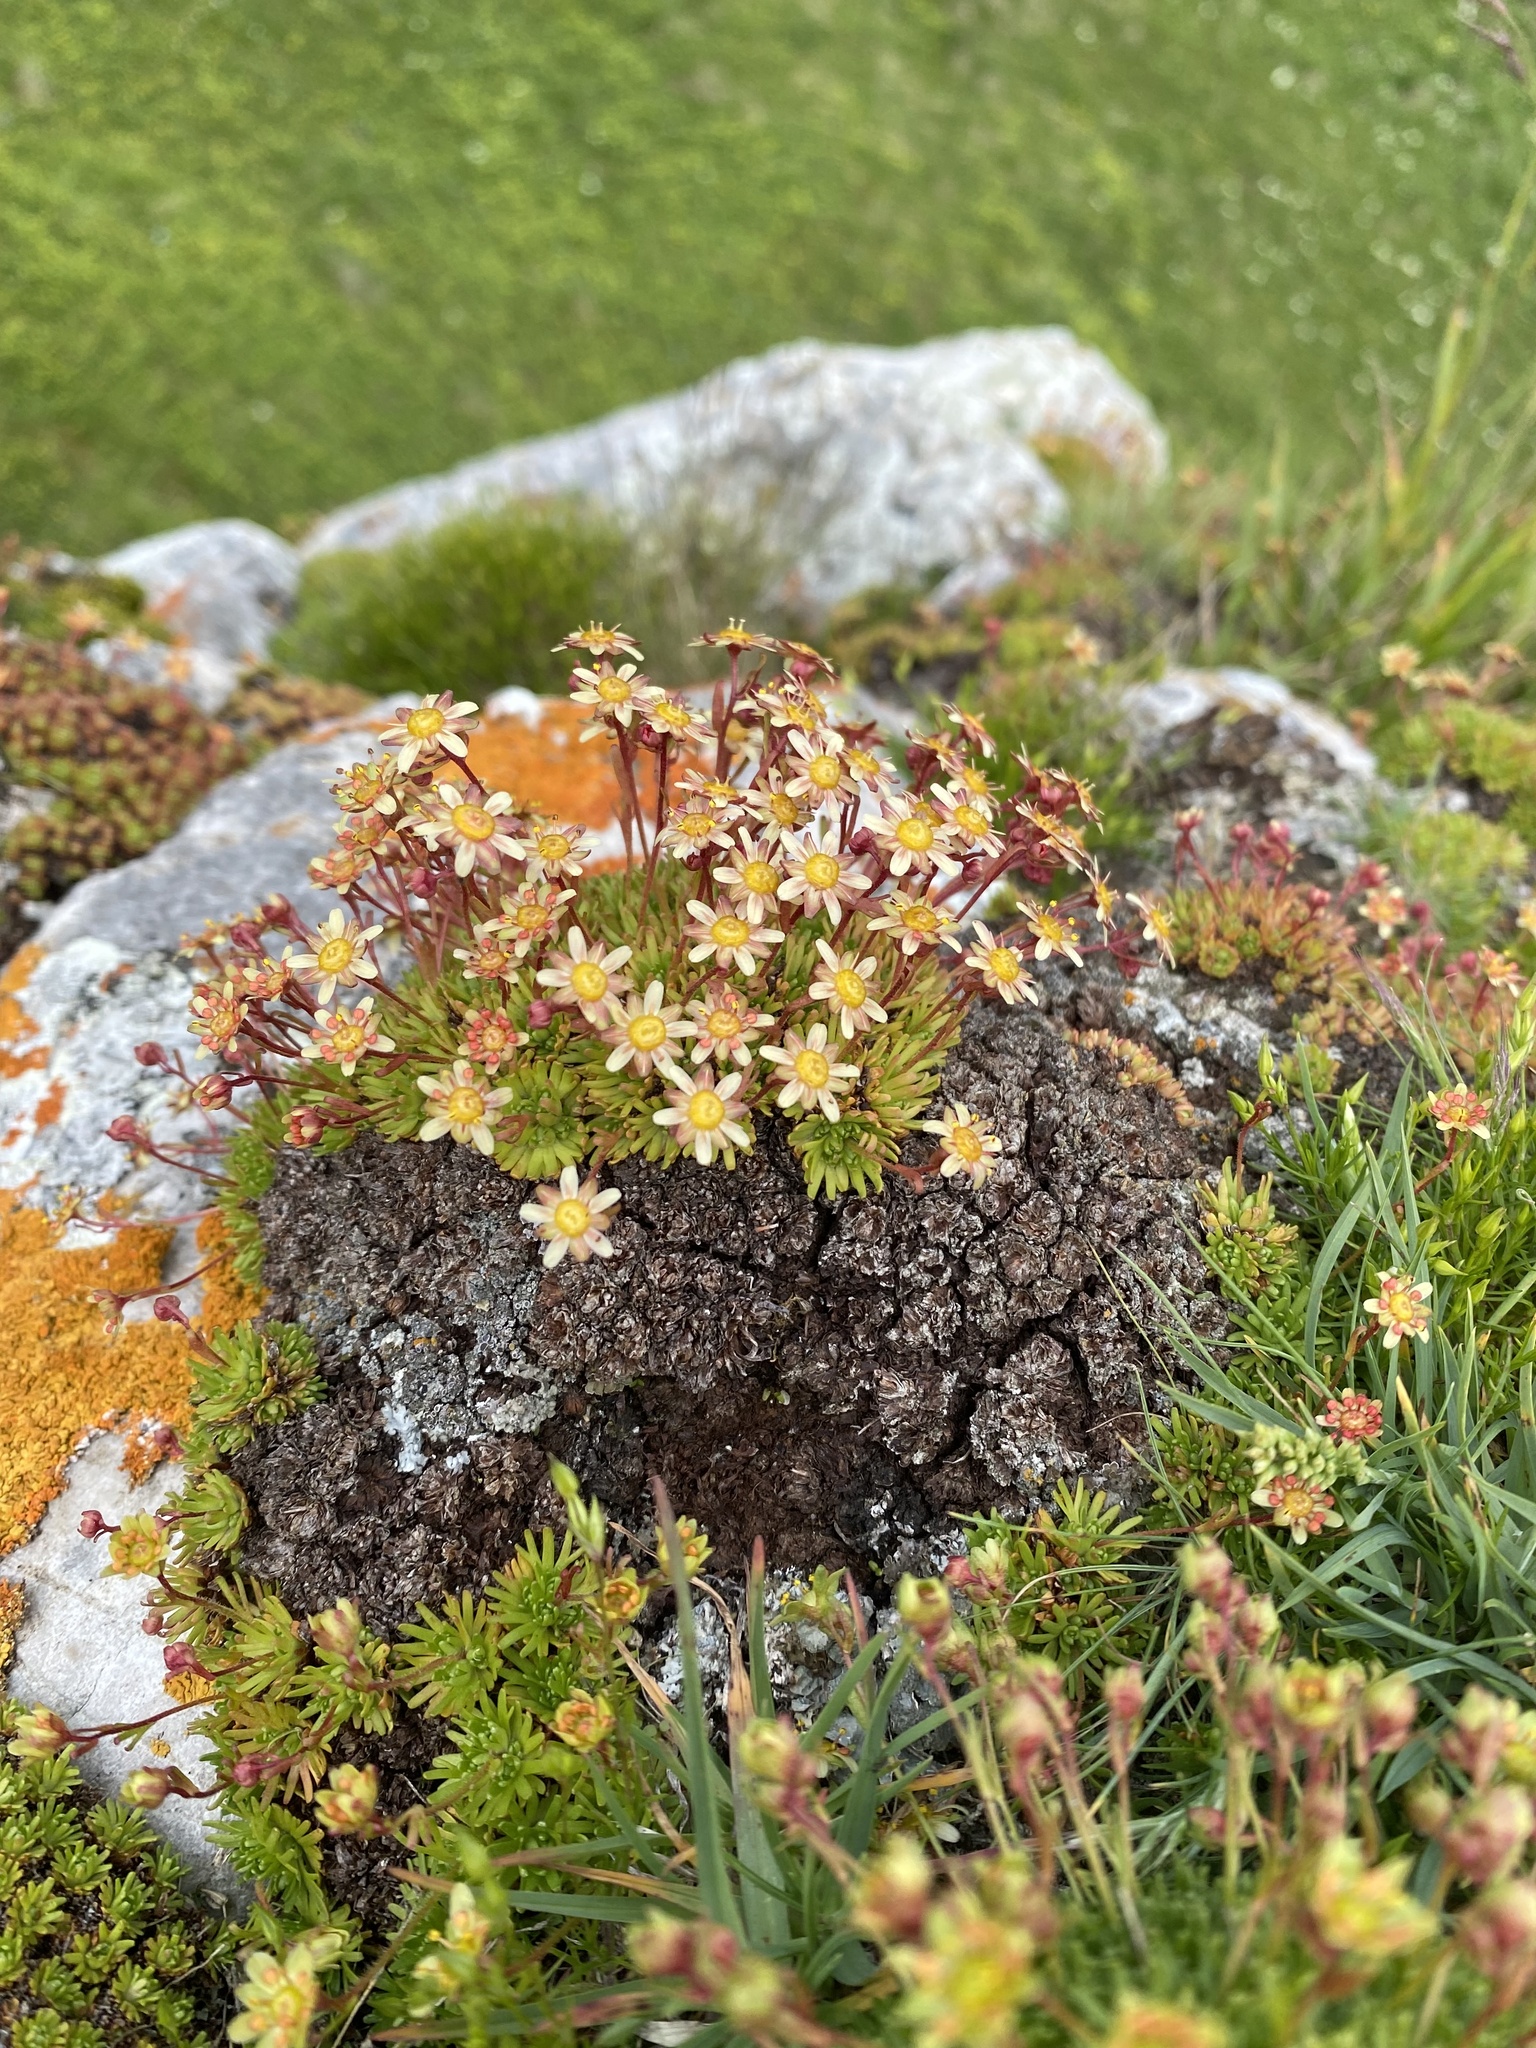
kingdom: Plantae
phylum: Tracheophyta
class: Magnoliopsida
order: Saxifragales
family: Saxifragaceae
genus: Saxifraga
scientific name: Saxifraga moschata
